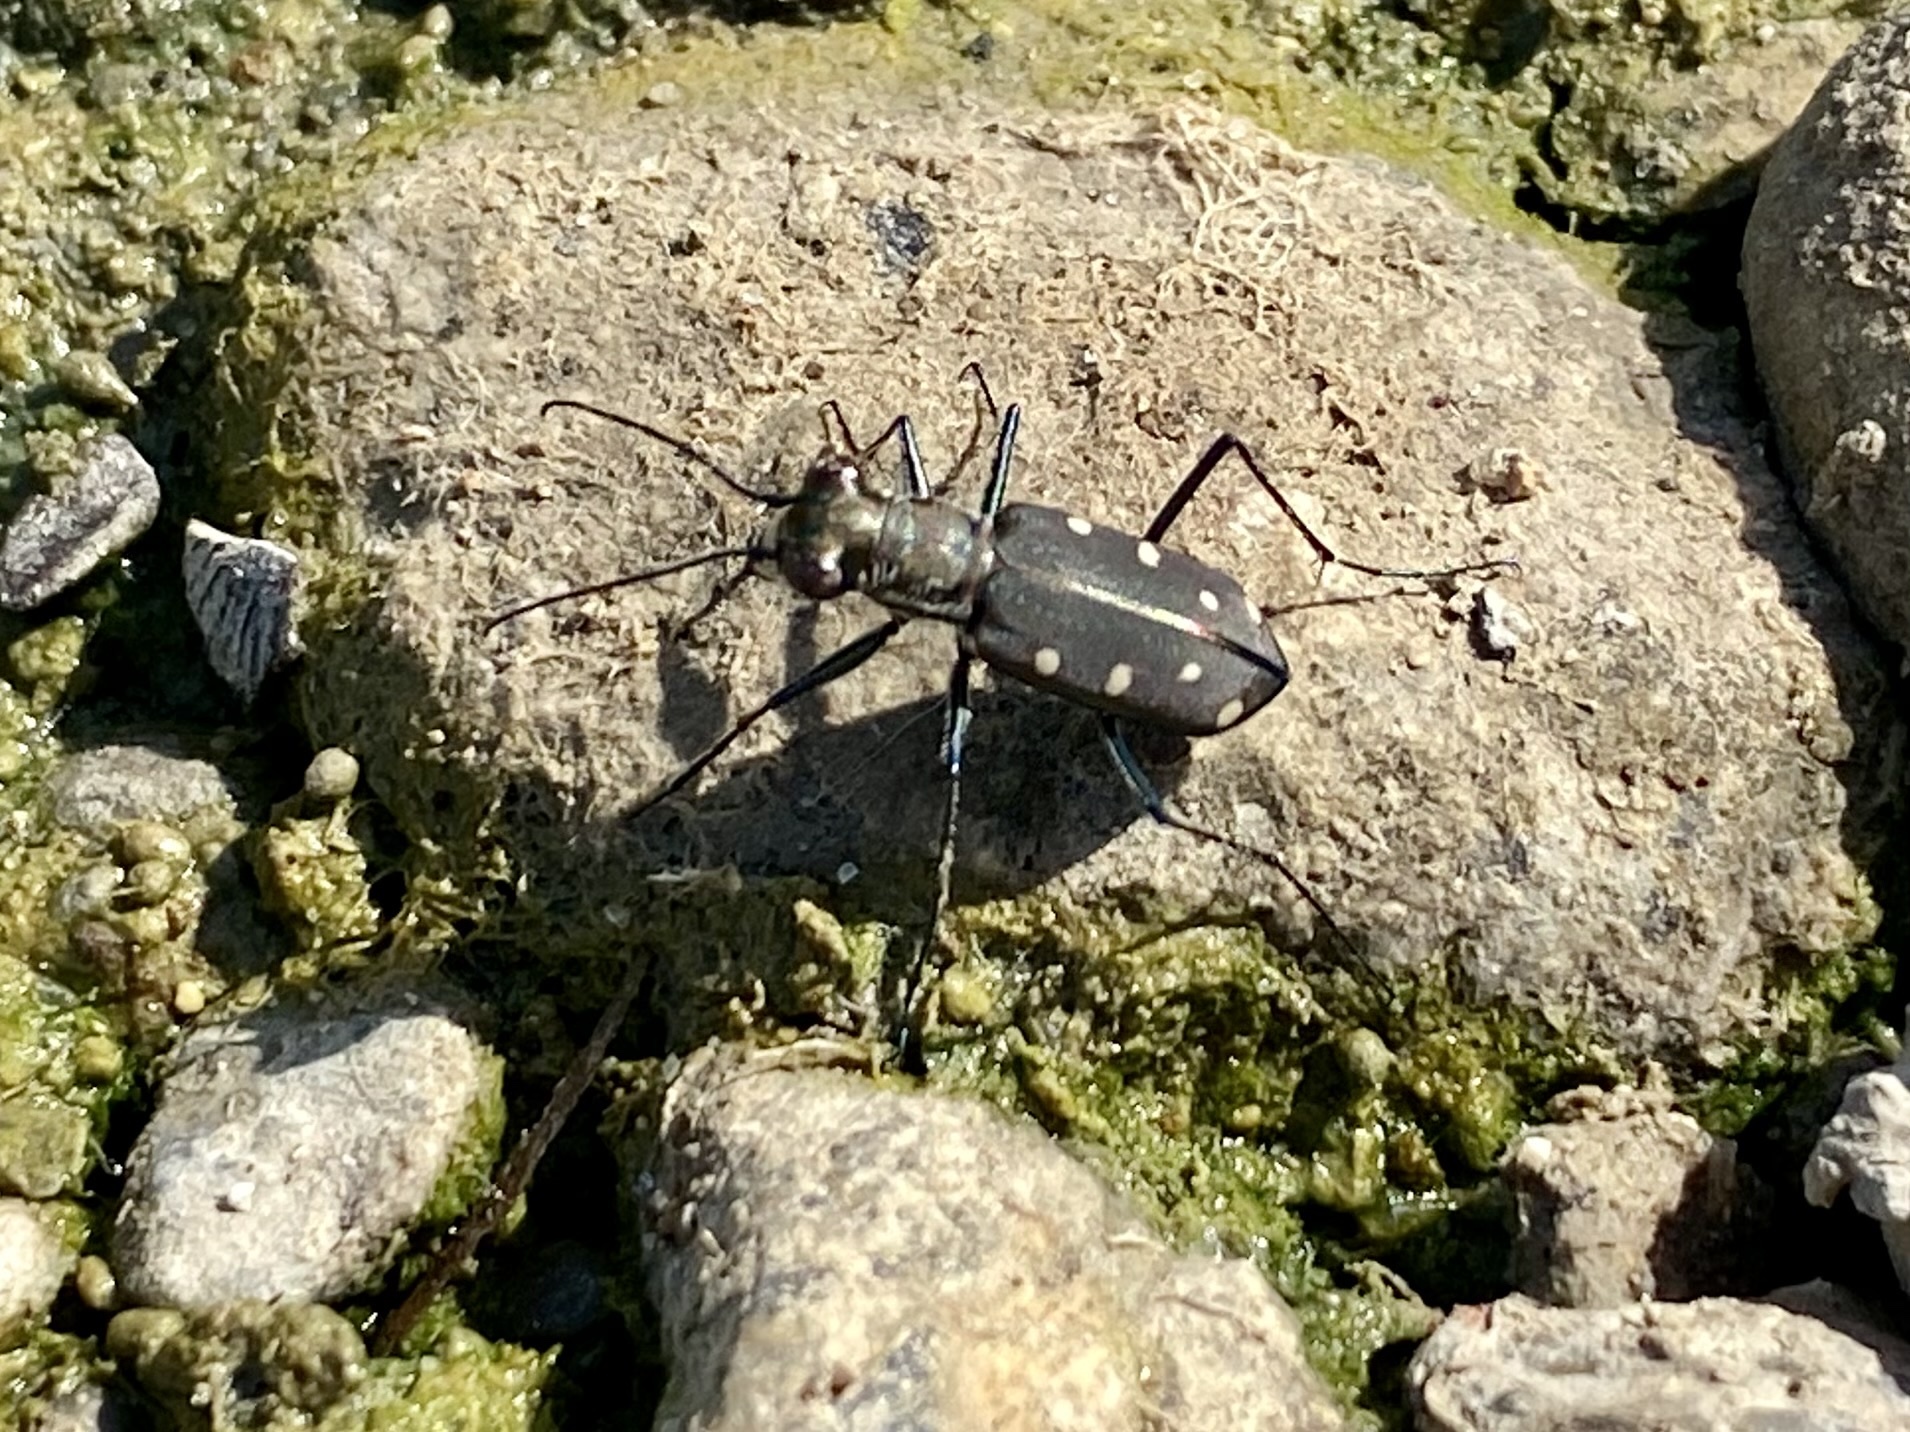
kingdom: Animalia
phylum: Arthropoda
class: Insecta
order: Coleoptera
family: Carabidae
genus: Cicindela
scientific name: Cicindela ocellata
